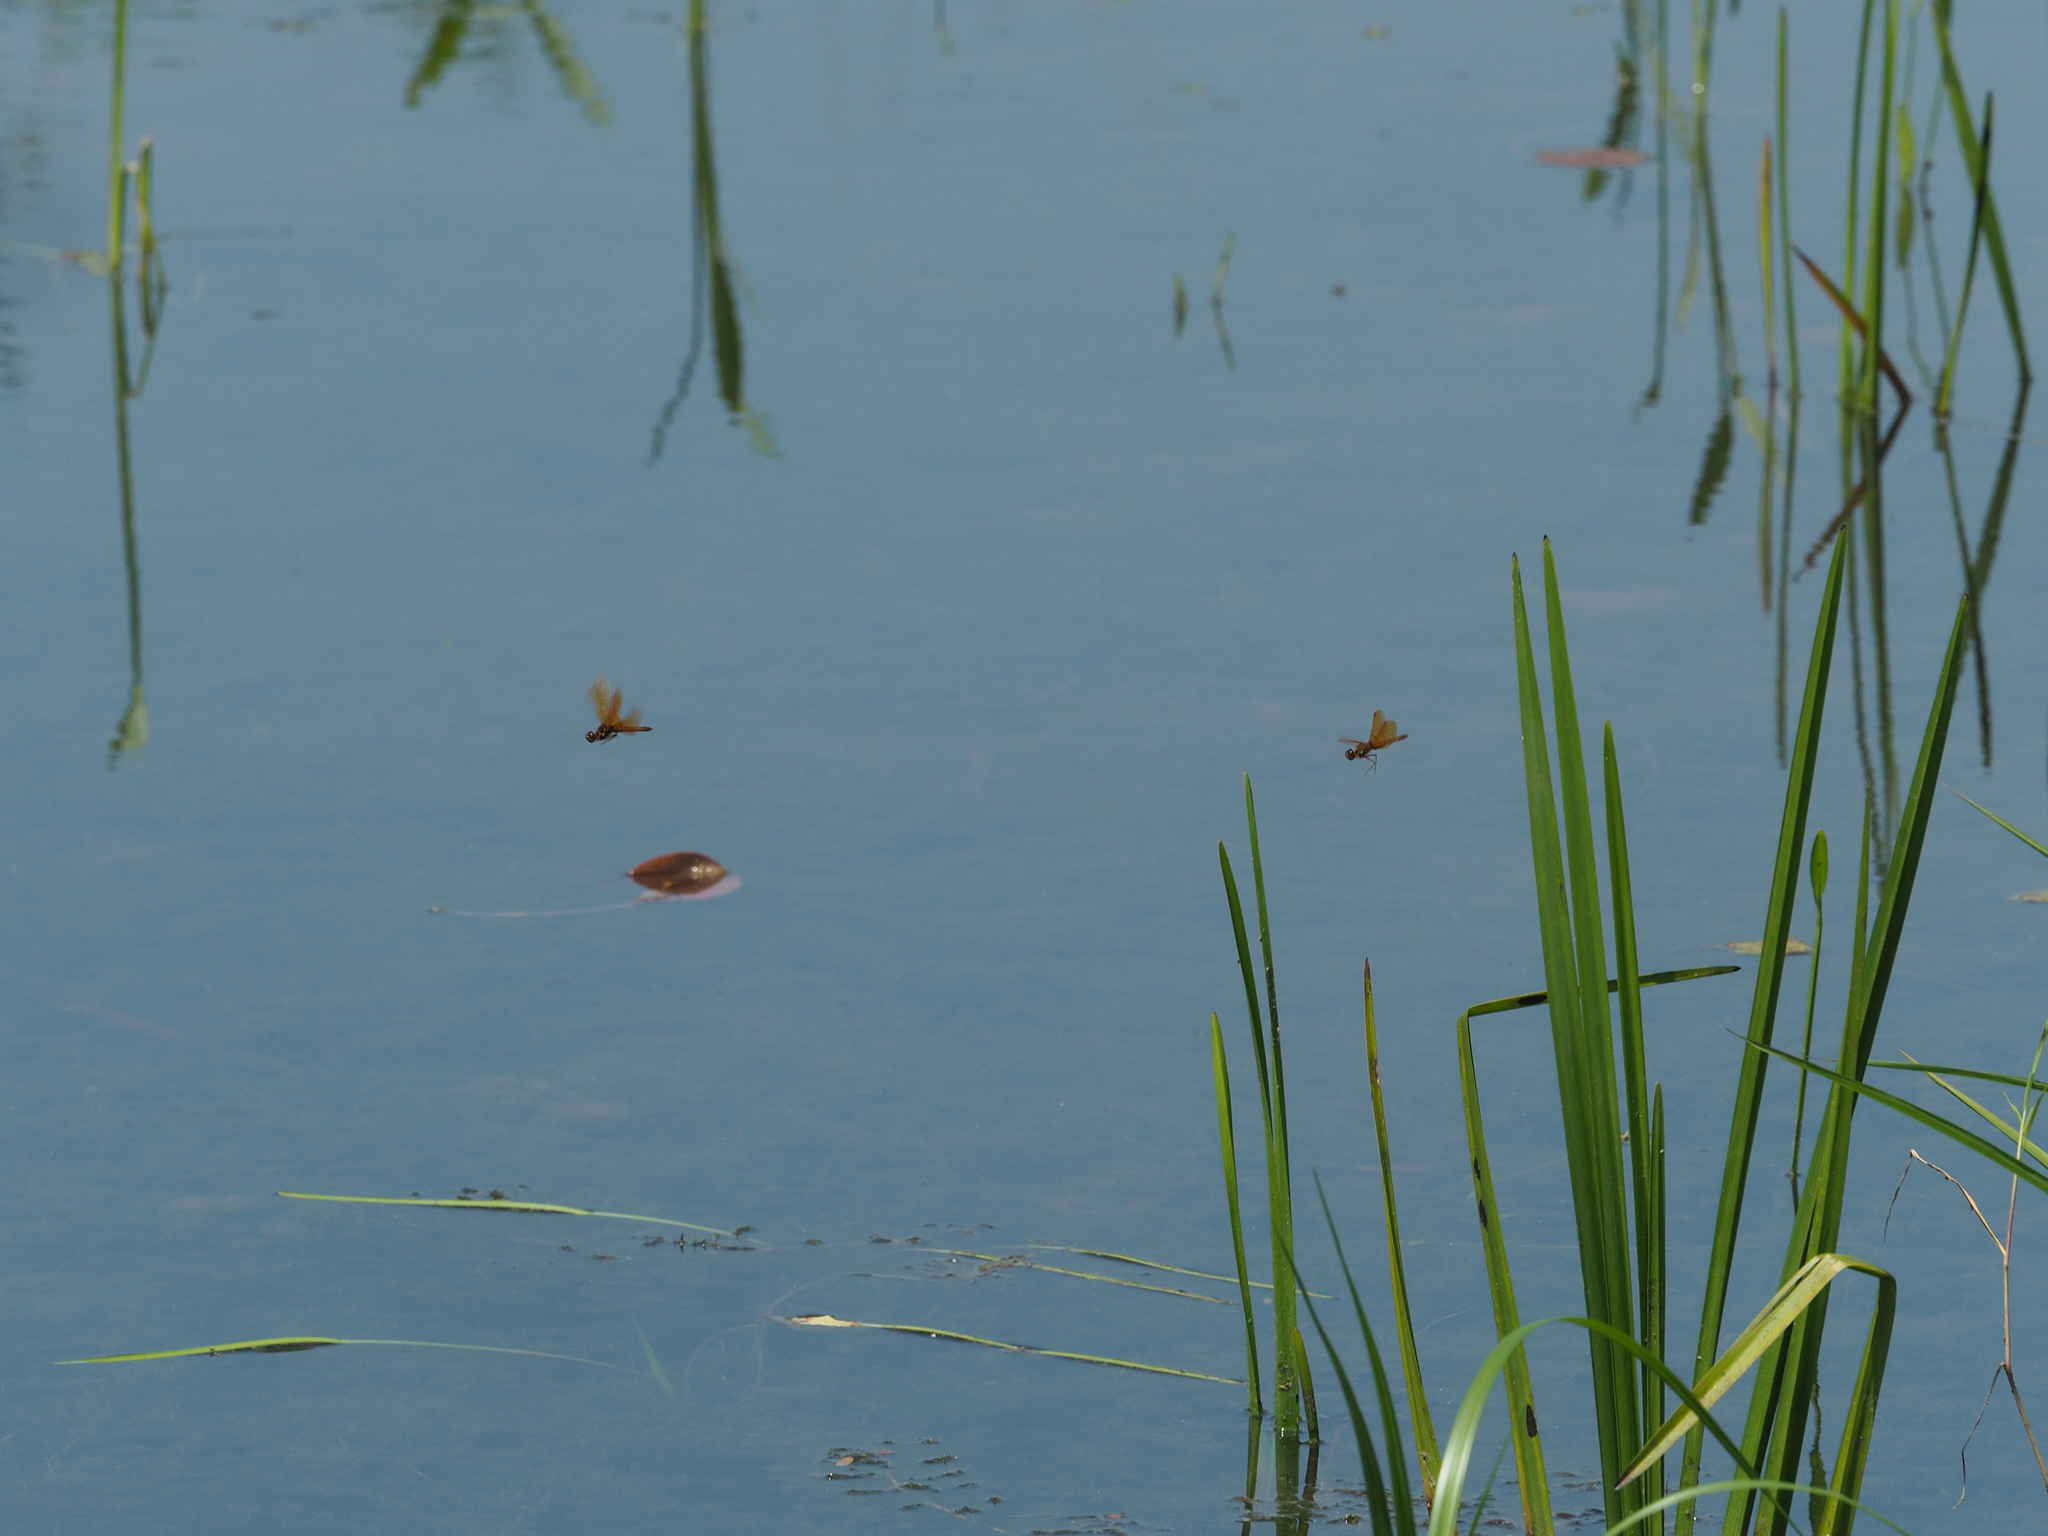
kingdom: Animalia
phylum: Arthropoda
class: Insecta
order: Odonata
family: Libellulidae
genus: Perithemis
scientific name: Perithemis tenera
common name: Eastern amberwing
